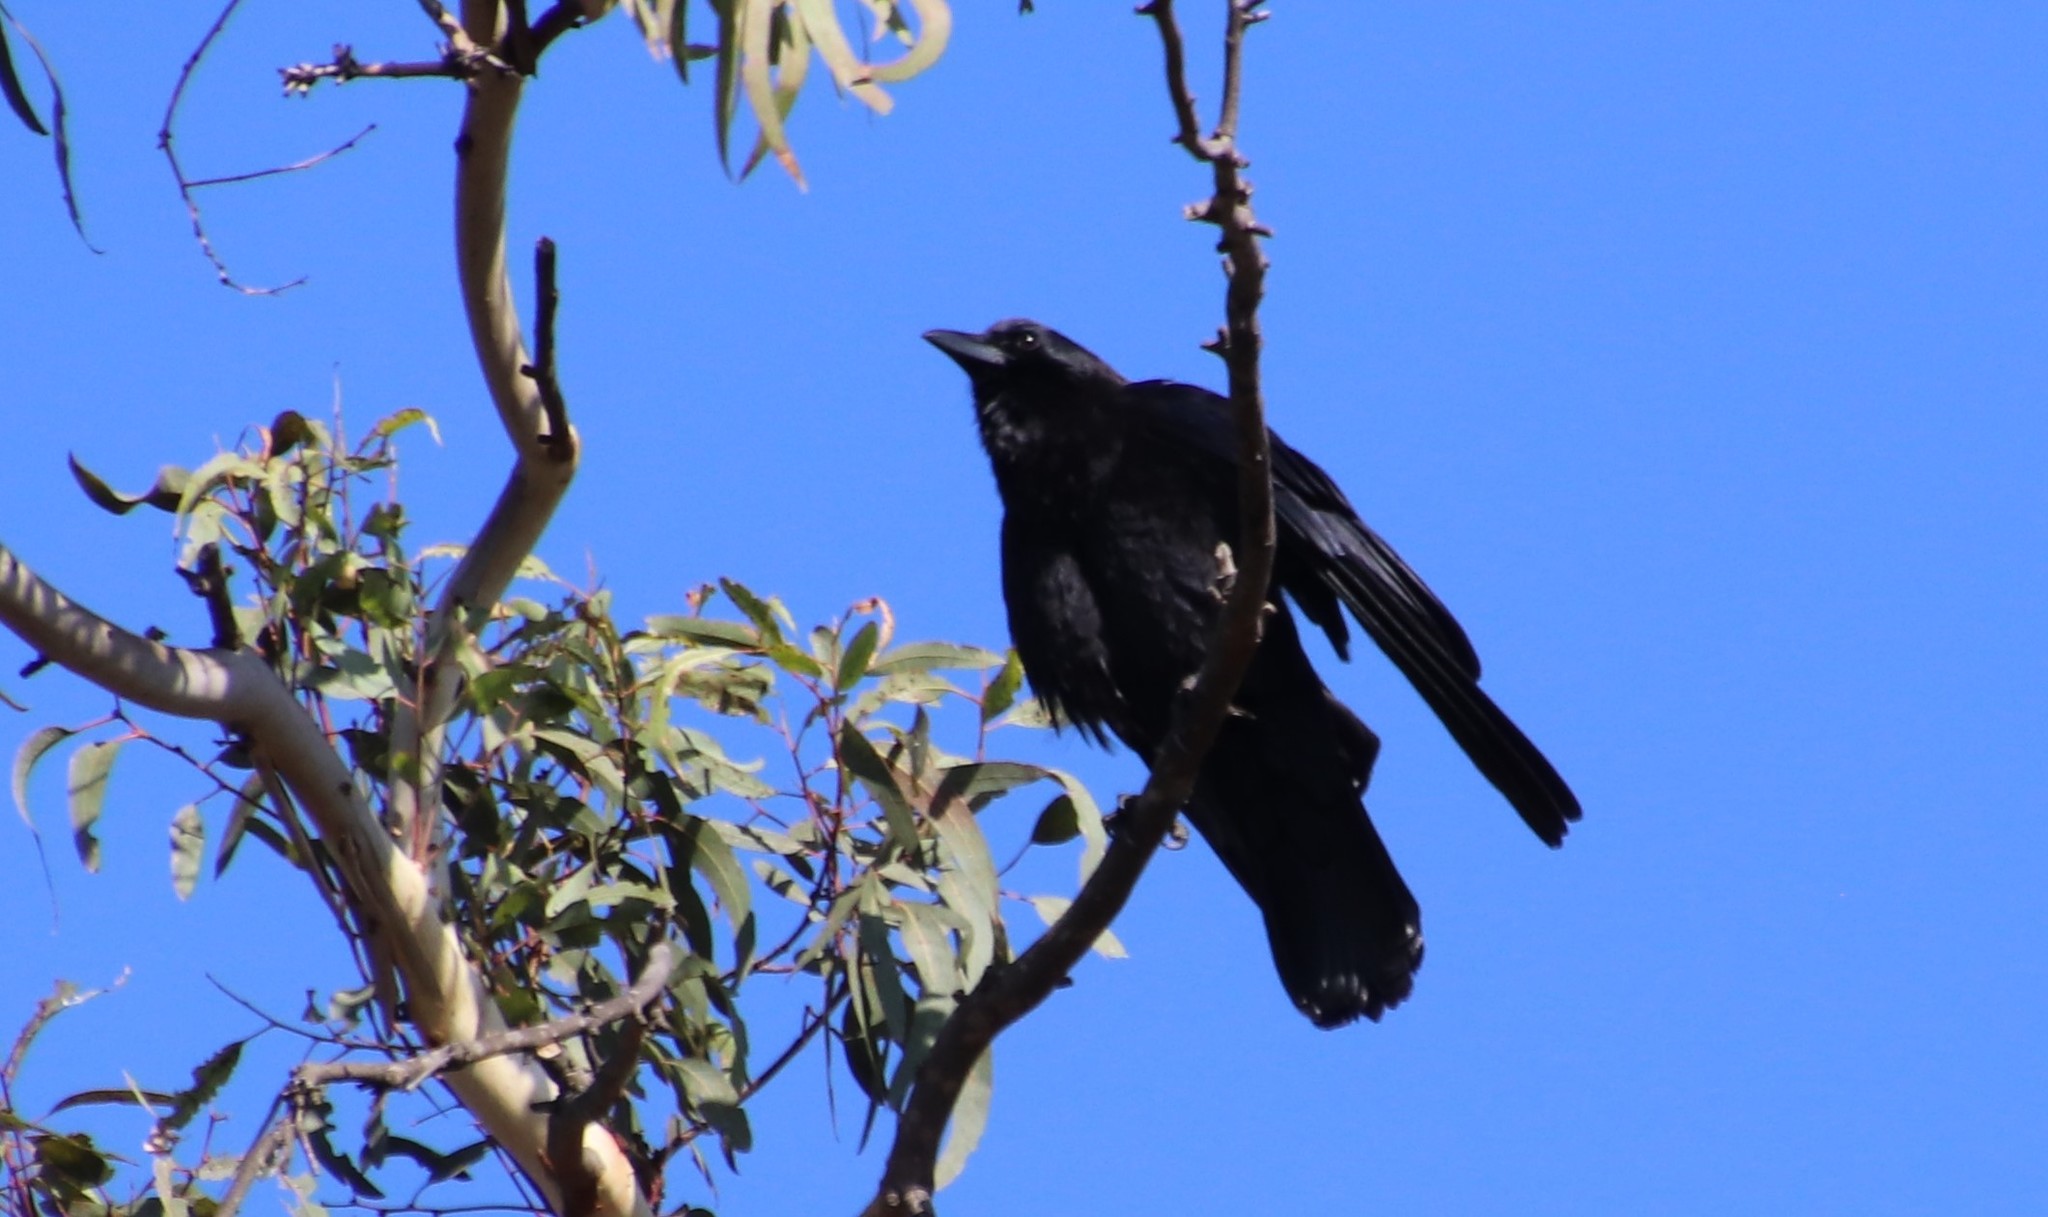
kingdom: Animalia
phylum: Chordata
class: Aves
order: Passeriformes
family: Corvidae
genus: Corvus
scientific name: Corvus brachyrhynchos
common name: American crow
